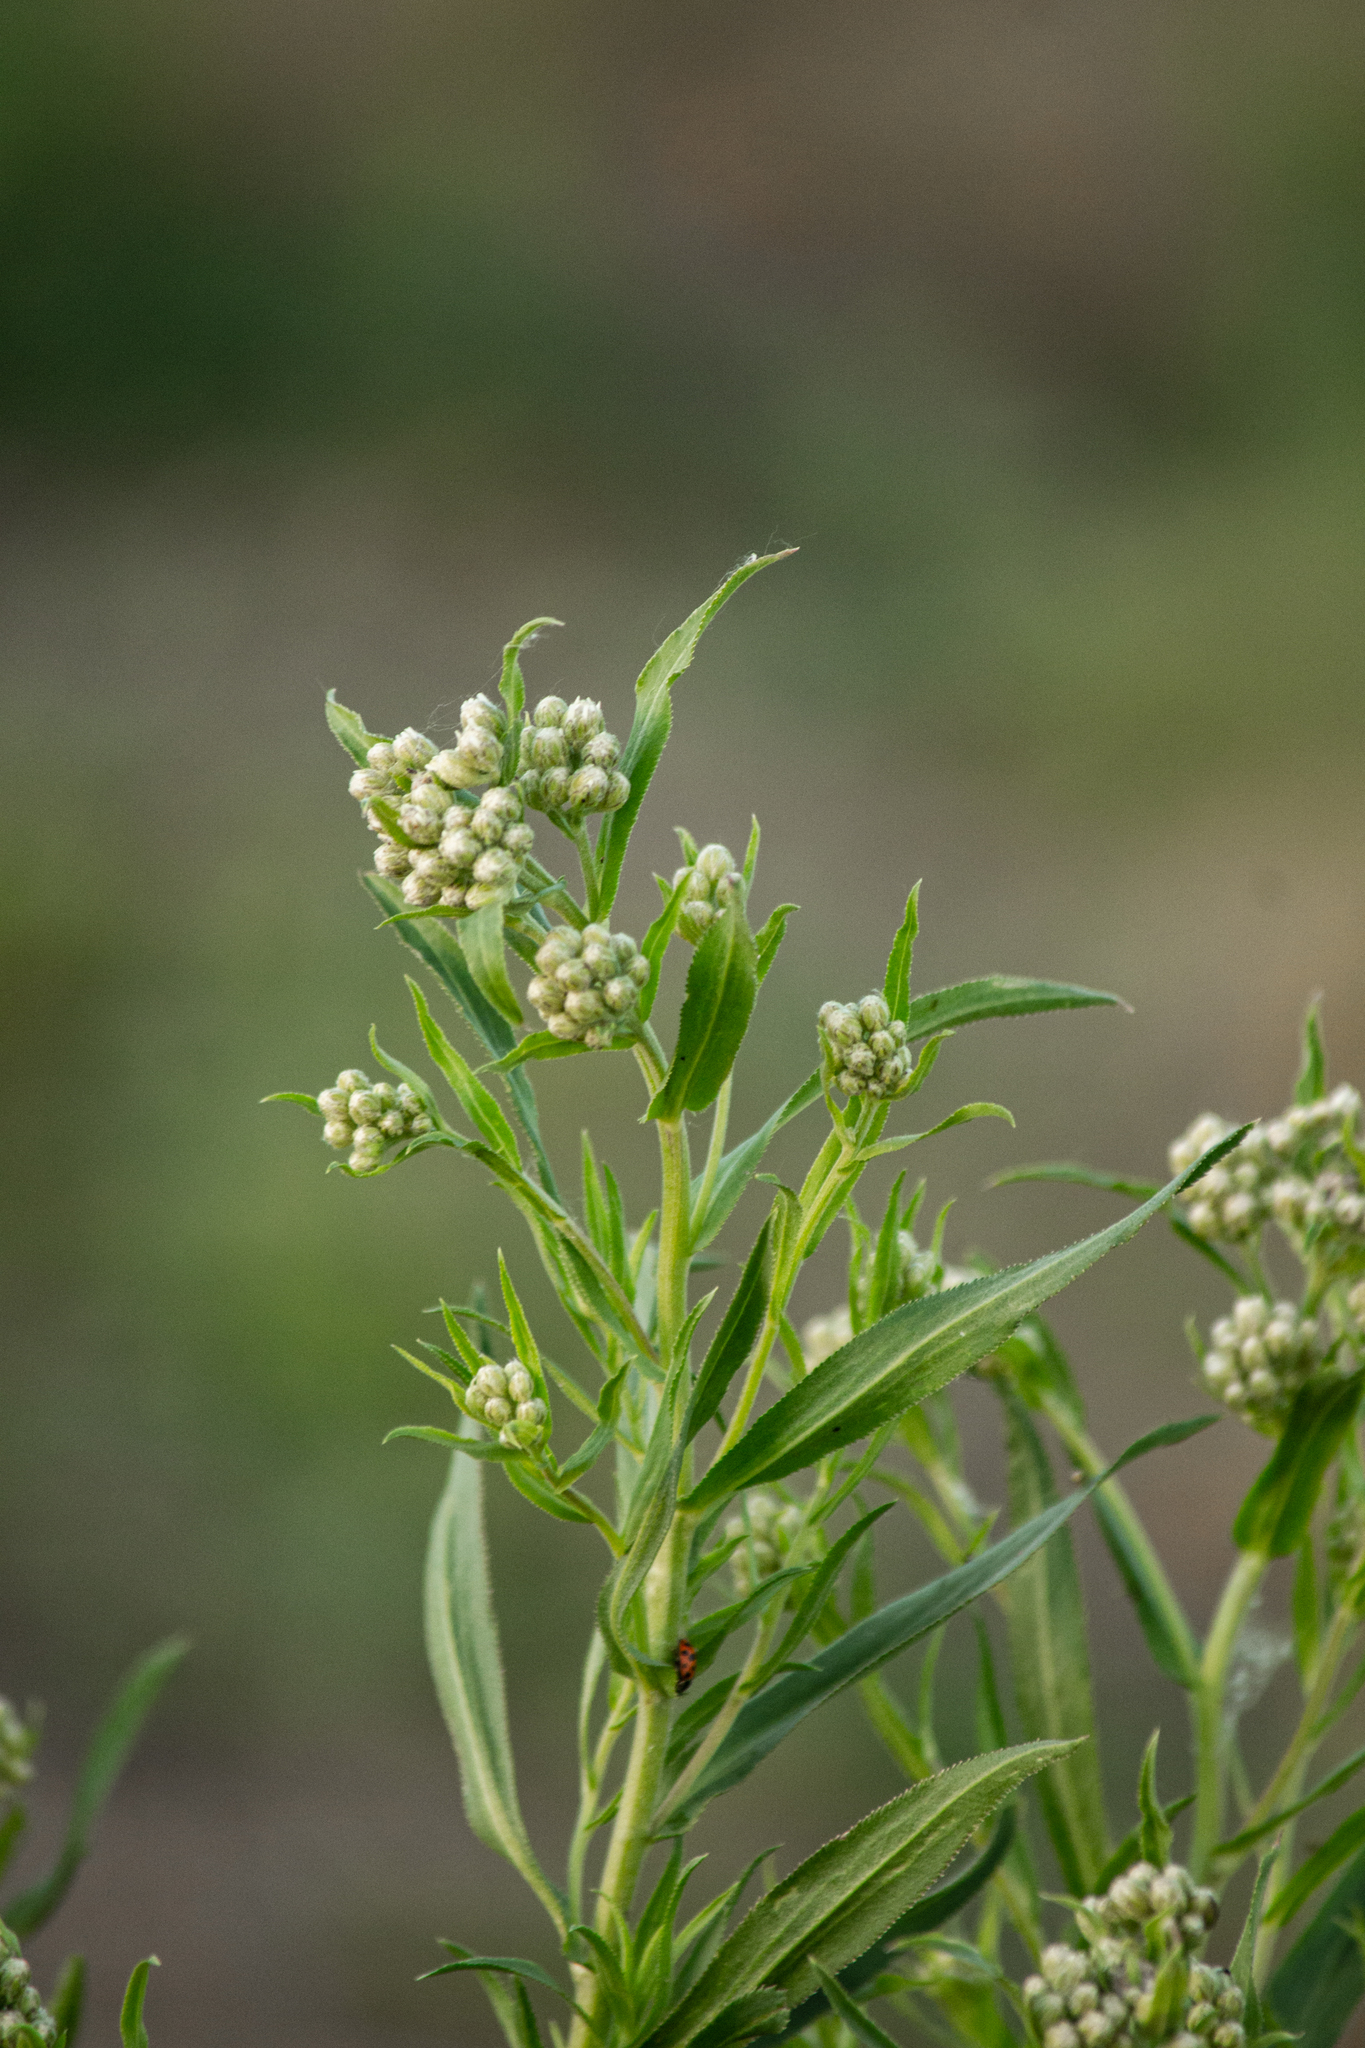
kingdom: Plantae
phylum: Tracheophyta
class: Magnoliopsida
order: Asterales
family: Asteraceae
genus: Achillea
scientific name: Achillea salicifolia
